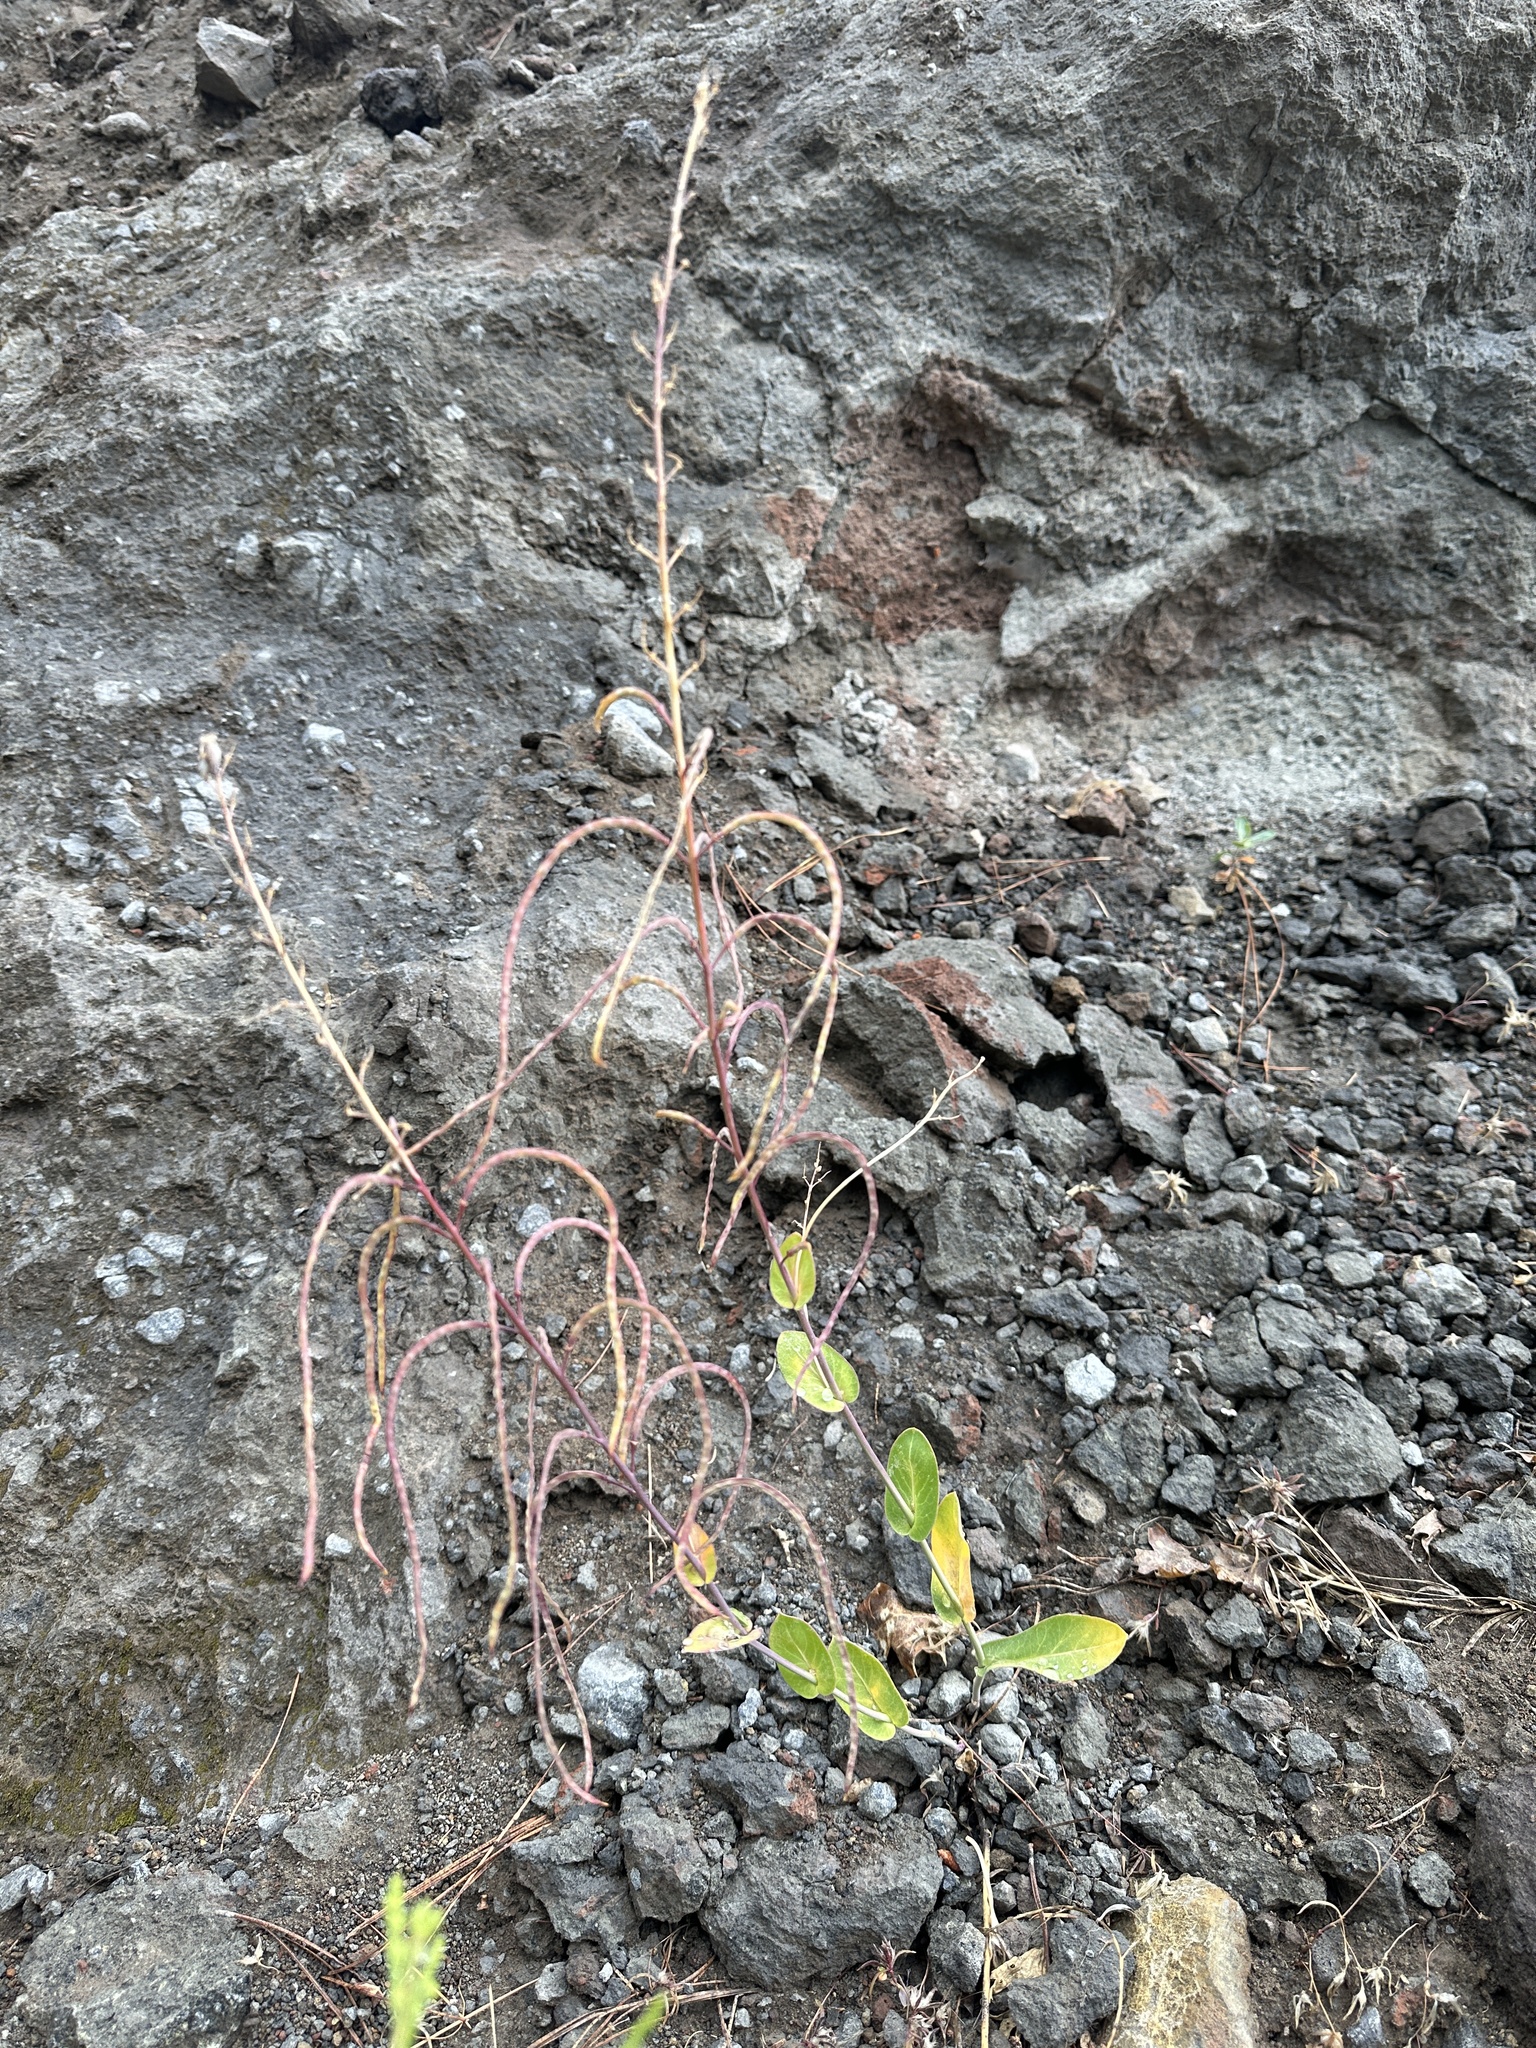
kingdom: Plantae
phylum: Tracheophyta
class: Magnoliopsida
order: Brassicales
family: Brassicaceae
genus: Streptanthus
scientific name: Streptanthus longisiliquus
